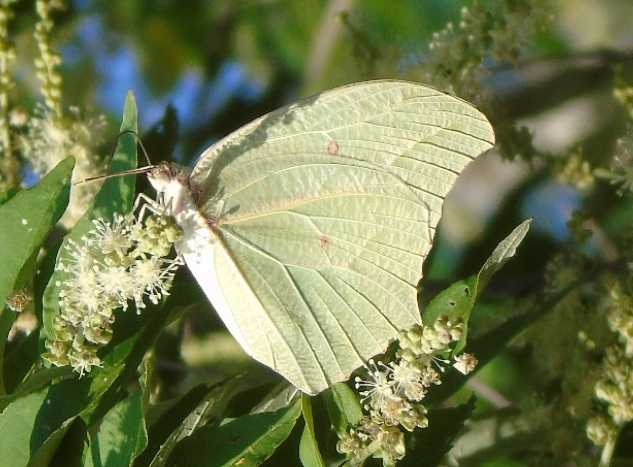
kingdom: Animalia
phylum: Arthropoda
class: Insecta
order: Lepidoptera
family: Pieridae
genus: Anteos
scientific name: Anteos clorinde
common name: White angled sulphur
